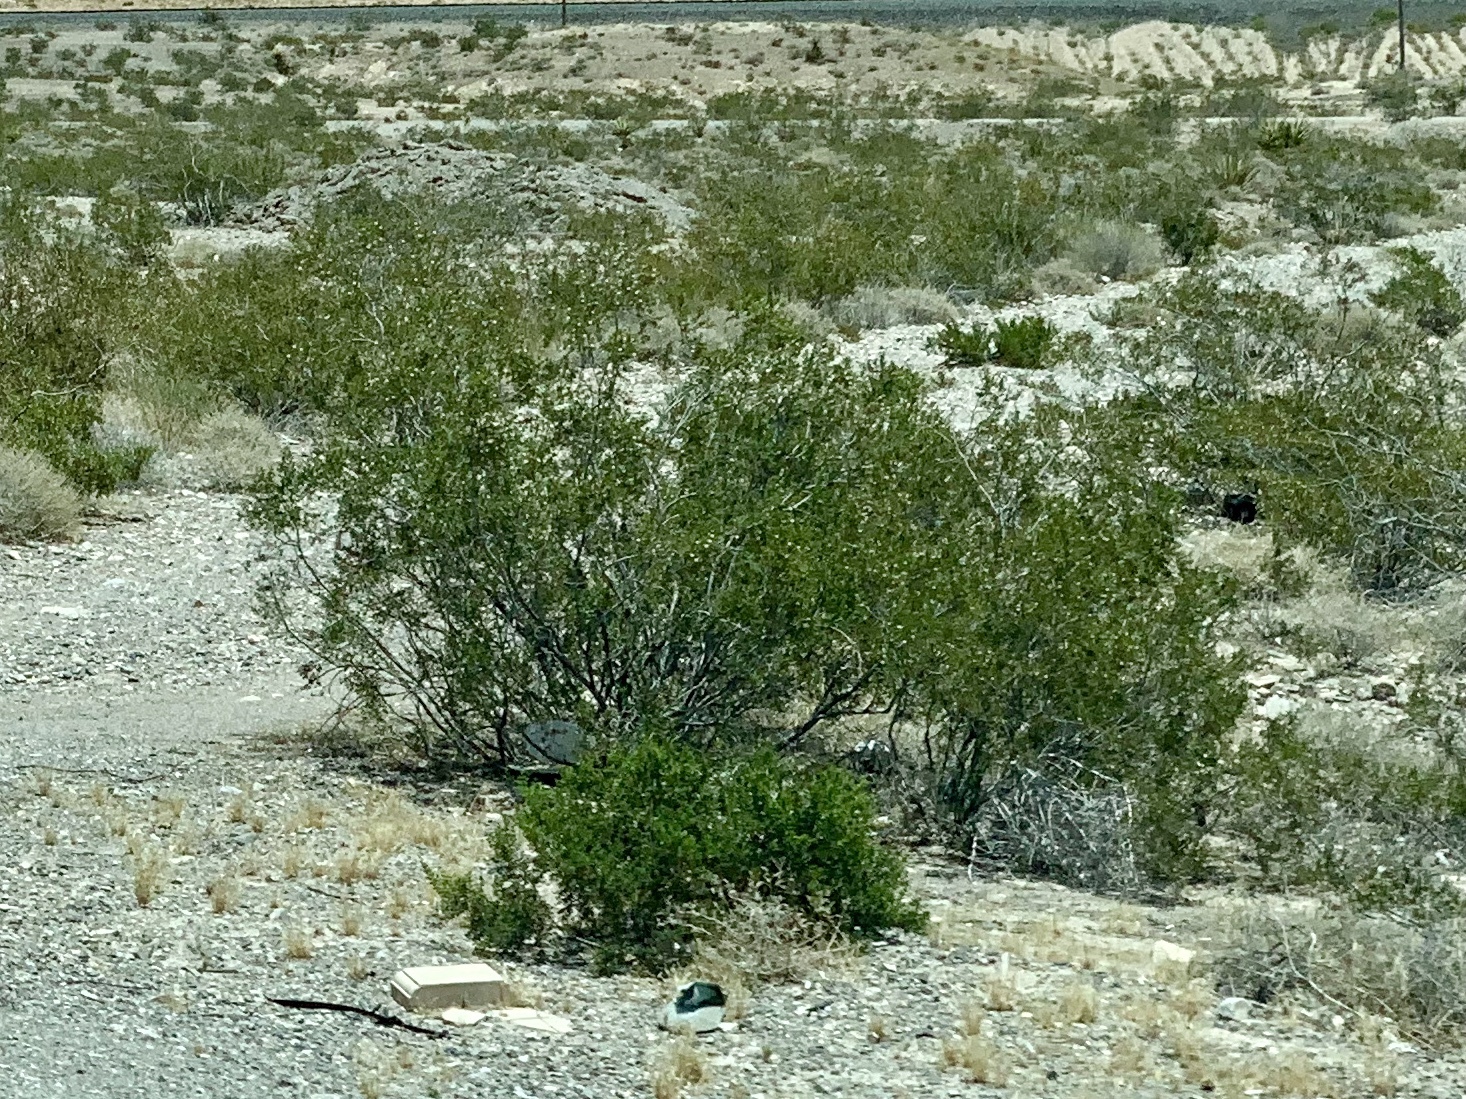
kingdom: Plantae
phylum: Tracheophyta
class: Magnoliopsida
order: Zygophyllales
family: Zygophyllaceae
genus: Larrea
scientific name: Larrea tridentata
